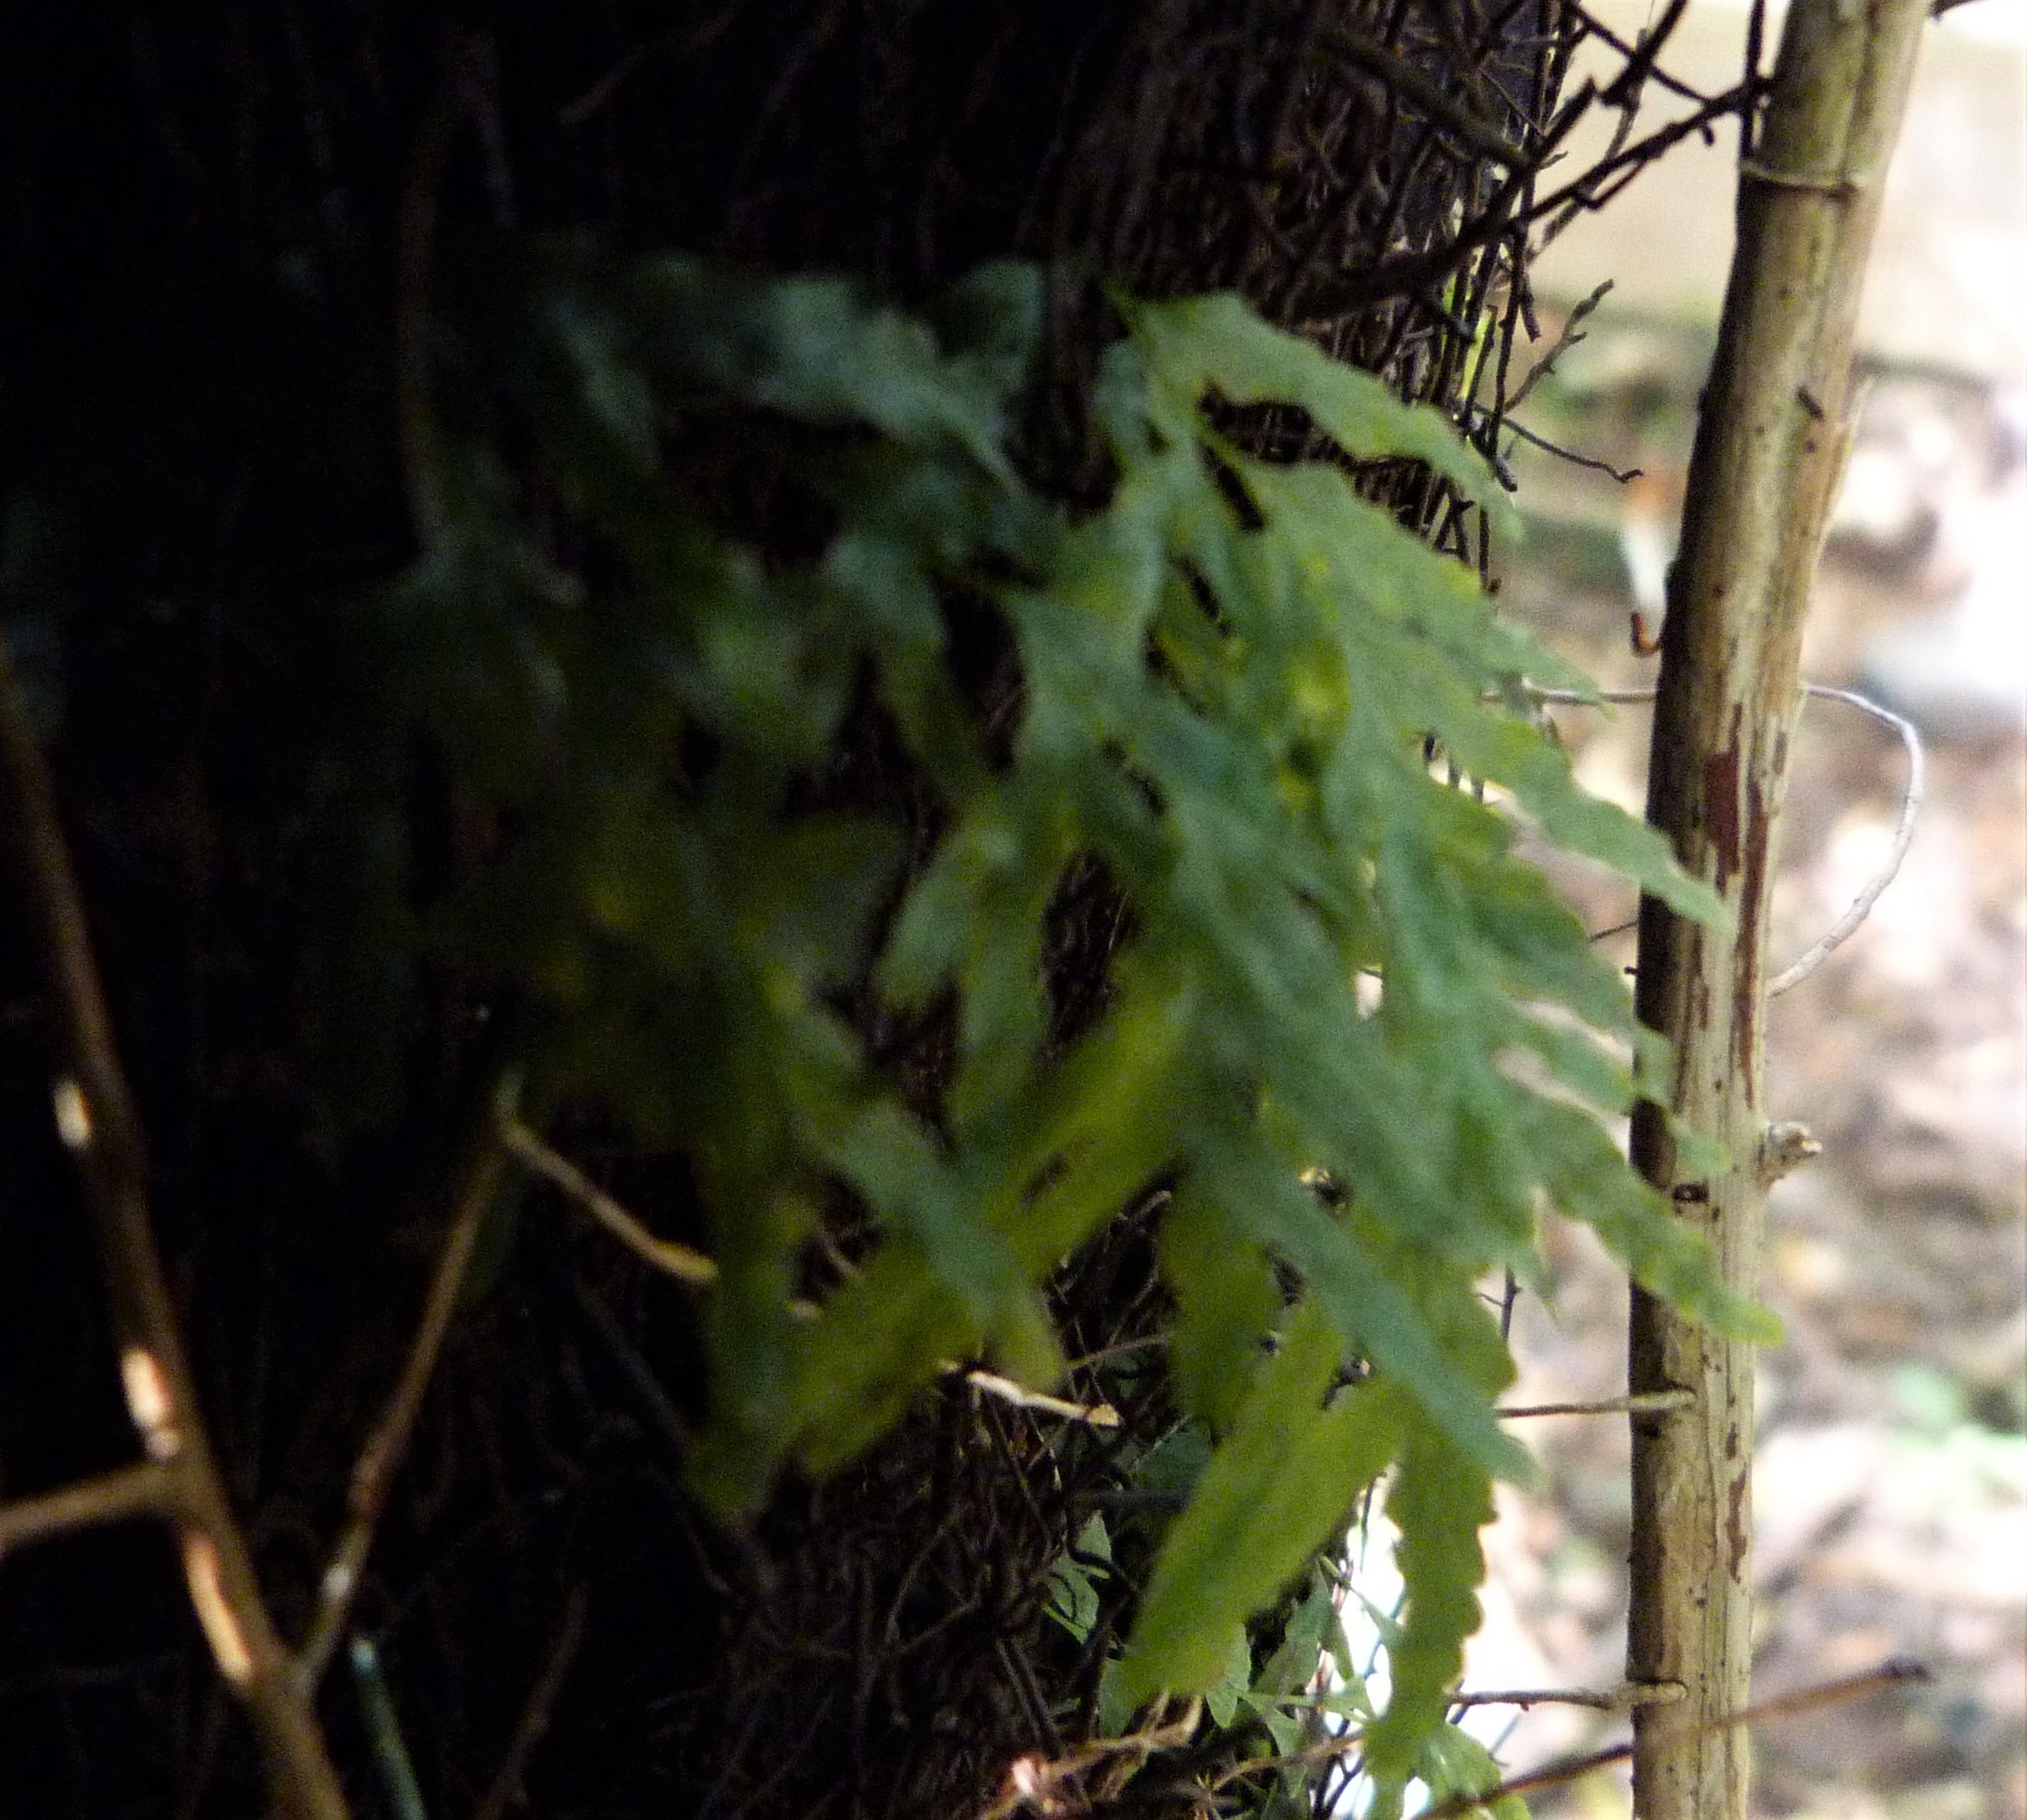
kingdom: Plantae
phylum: Tracheophyta
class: Polypodiopsida
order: Hymenophyllales
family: Hymenophyllaceae
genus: Polyphlebium
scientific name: Polyphlebium venosum
